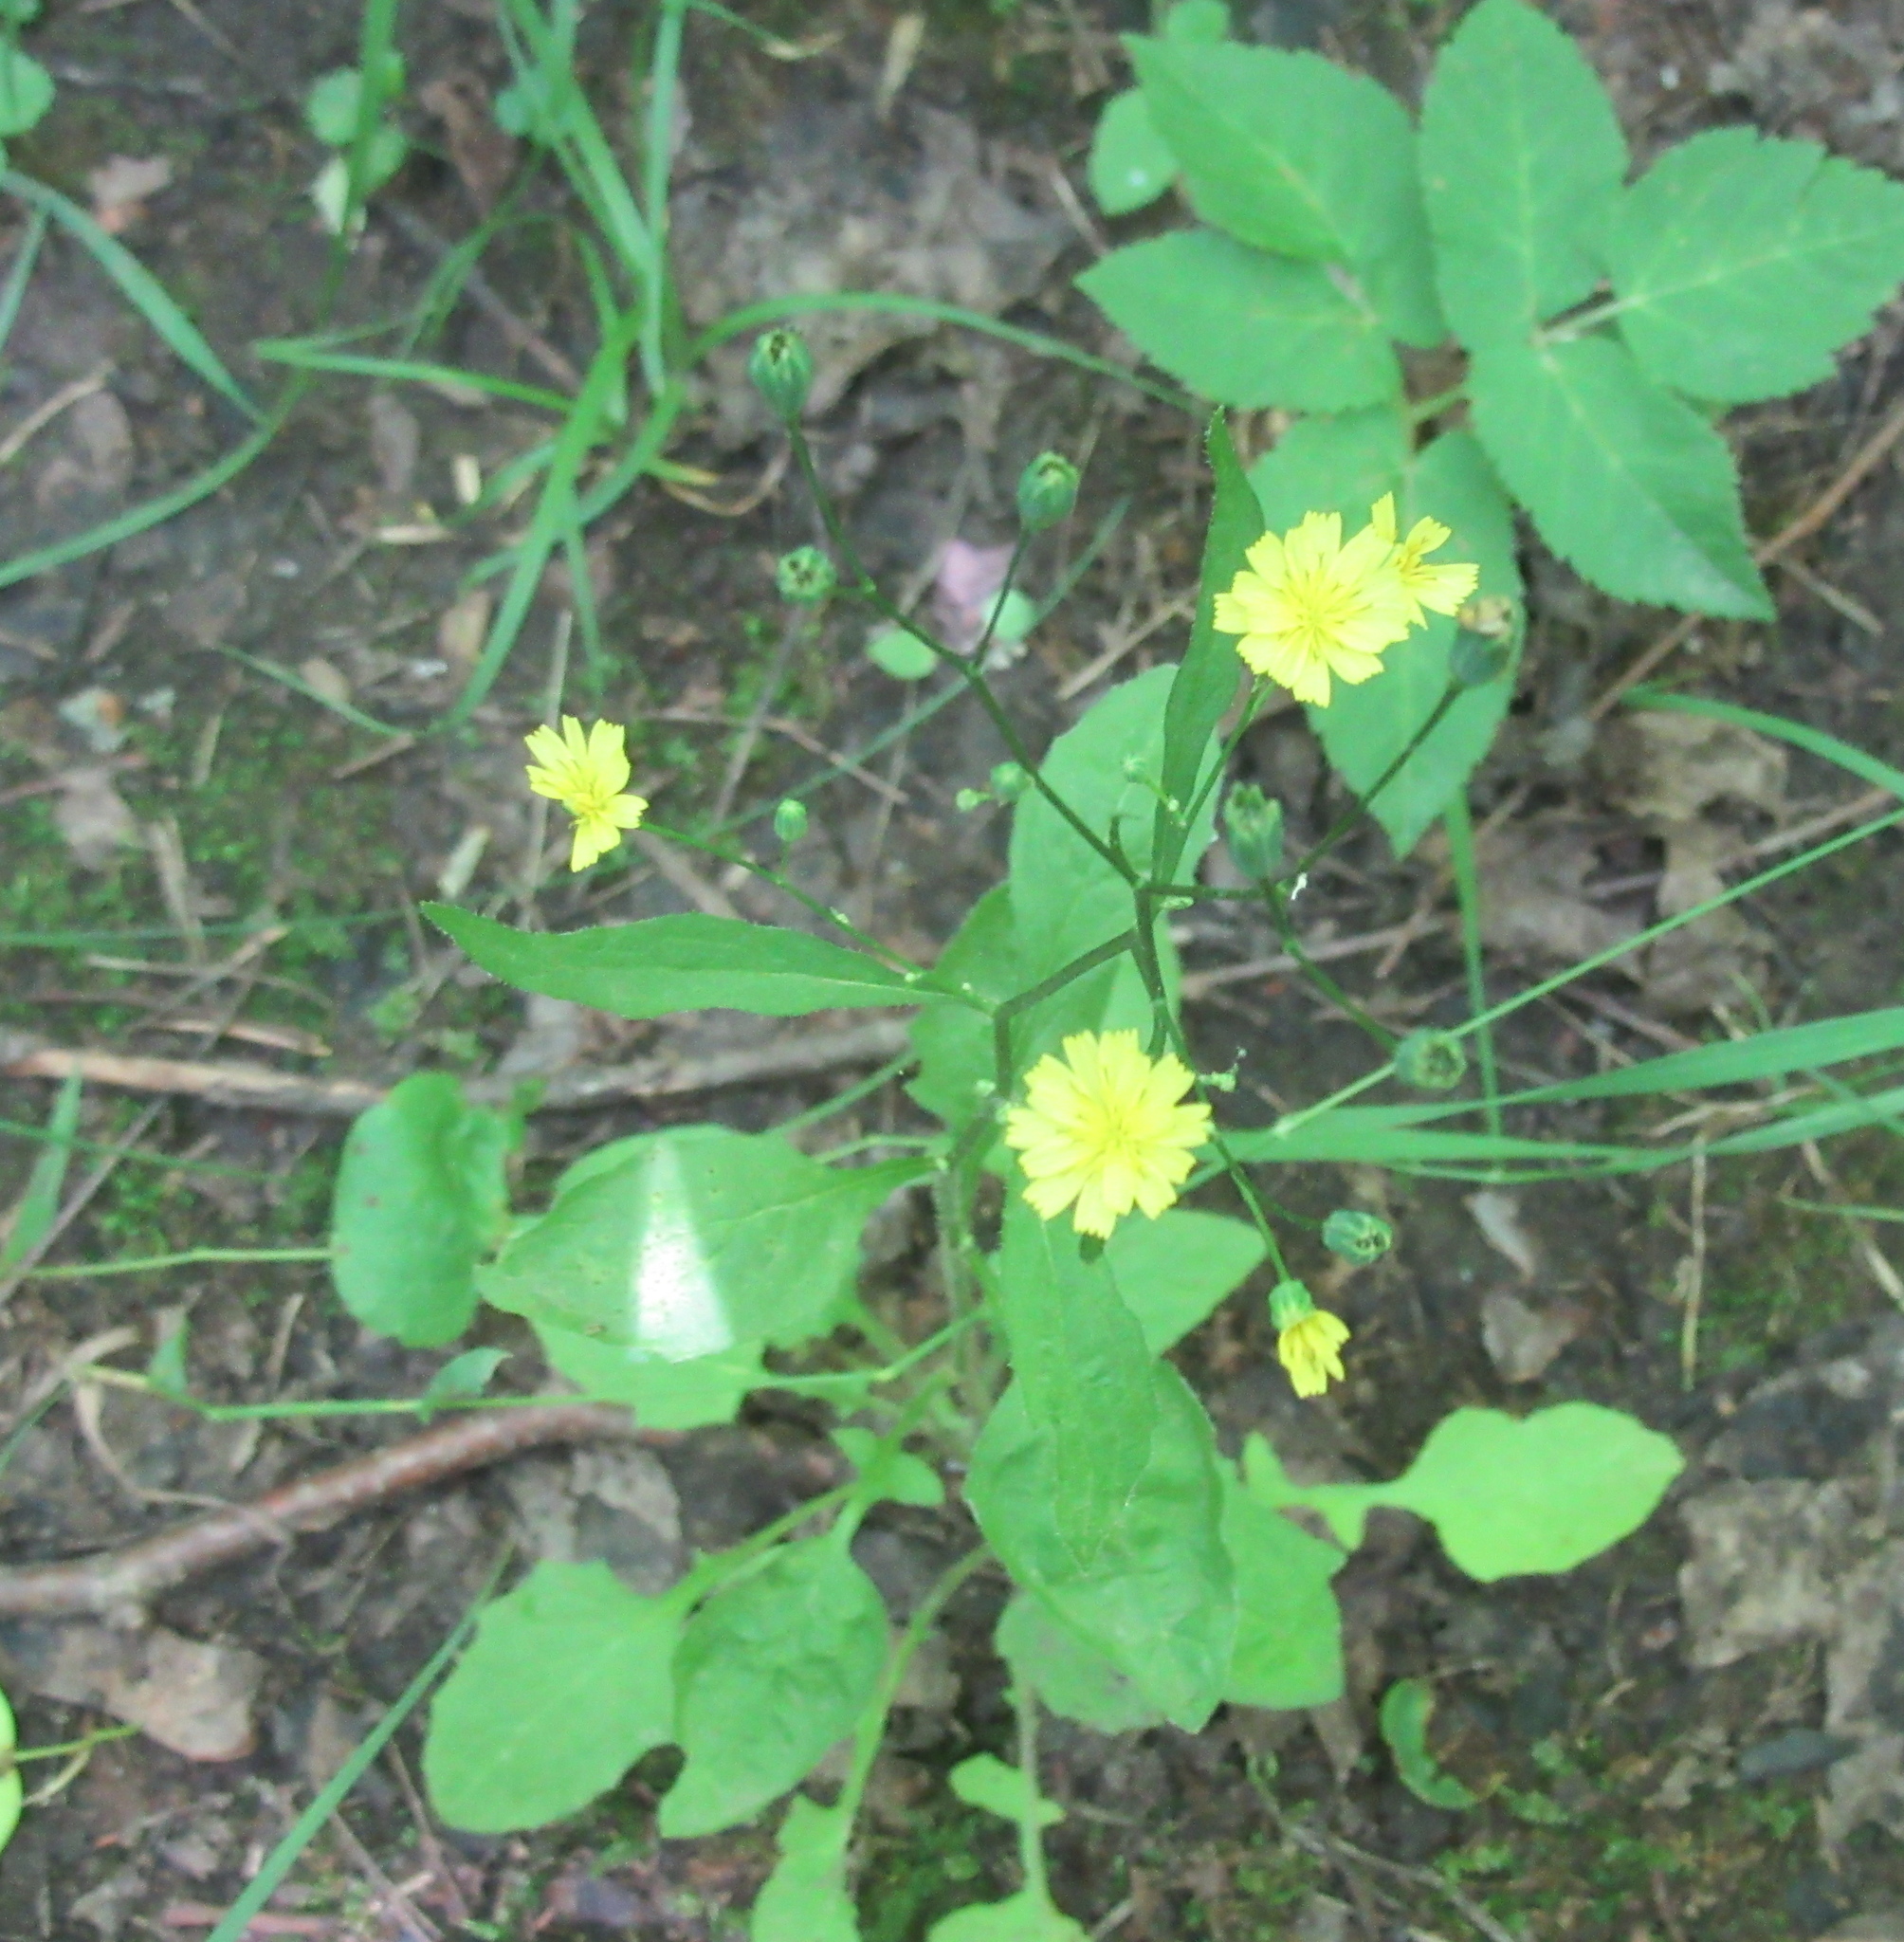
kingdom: Plantae
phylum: Tracheophyta
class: Magnoliopsida
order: Asterales
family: Asteraceae
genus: Lapsana
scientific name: Lapsana communis
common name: Nipplewort
